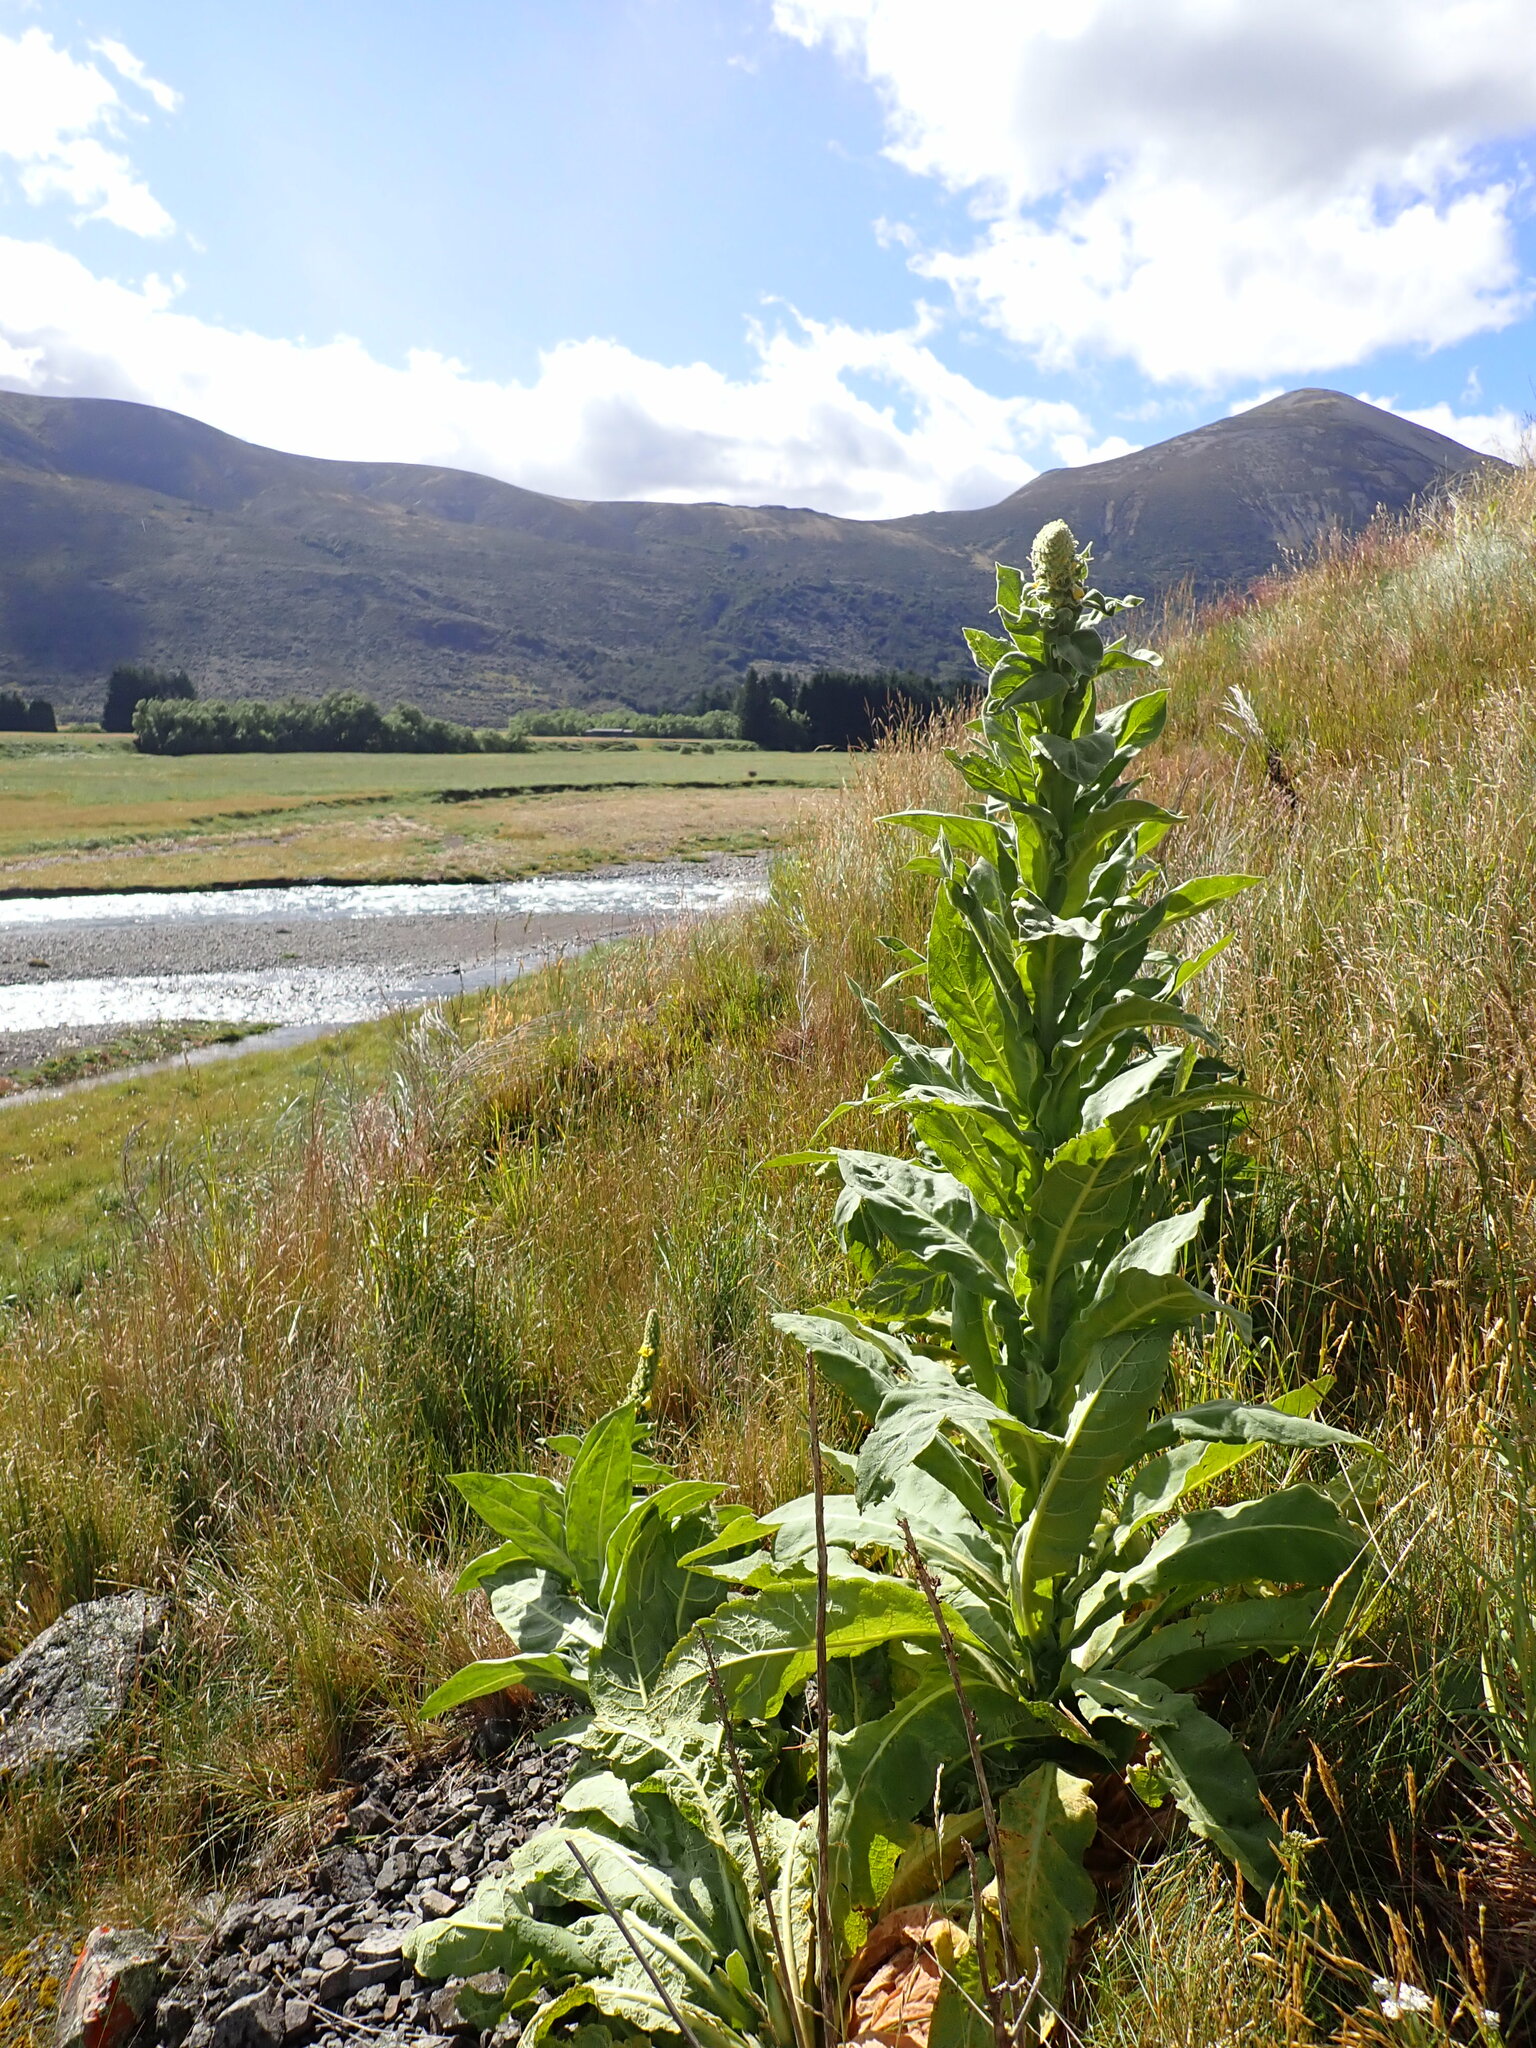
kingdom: Plantae
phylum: Tracheophyta
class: Magnoliopsida
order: Lamiales
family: Scrophulariaceae
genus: Verbascum
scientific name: Verbascum thapsus
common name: Common mullein
